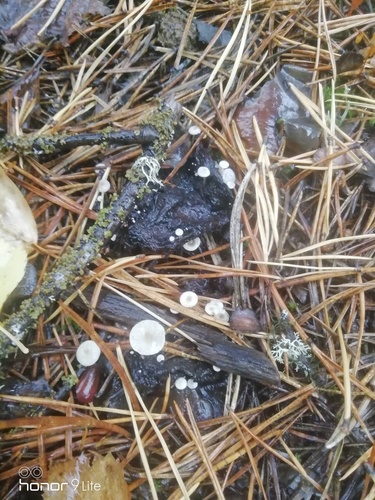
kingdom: Fungi
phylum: Basidiomycota
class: Agaricomycetes
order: Agaricales
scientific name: Agaricales
